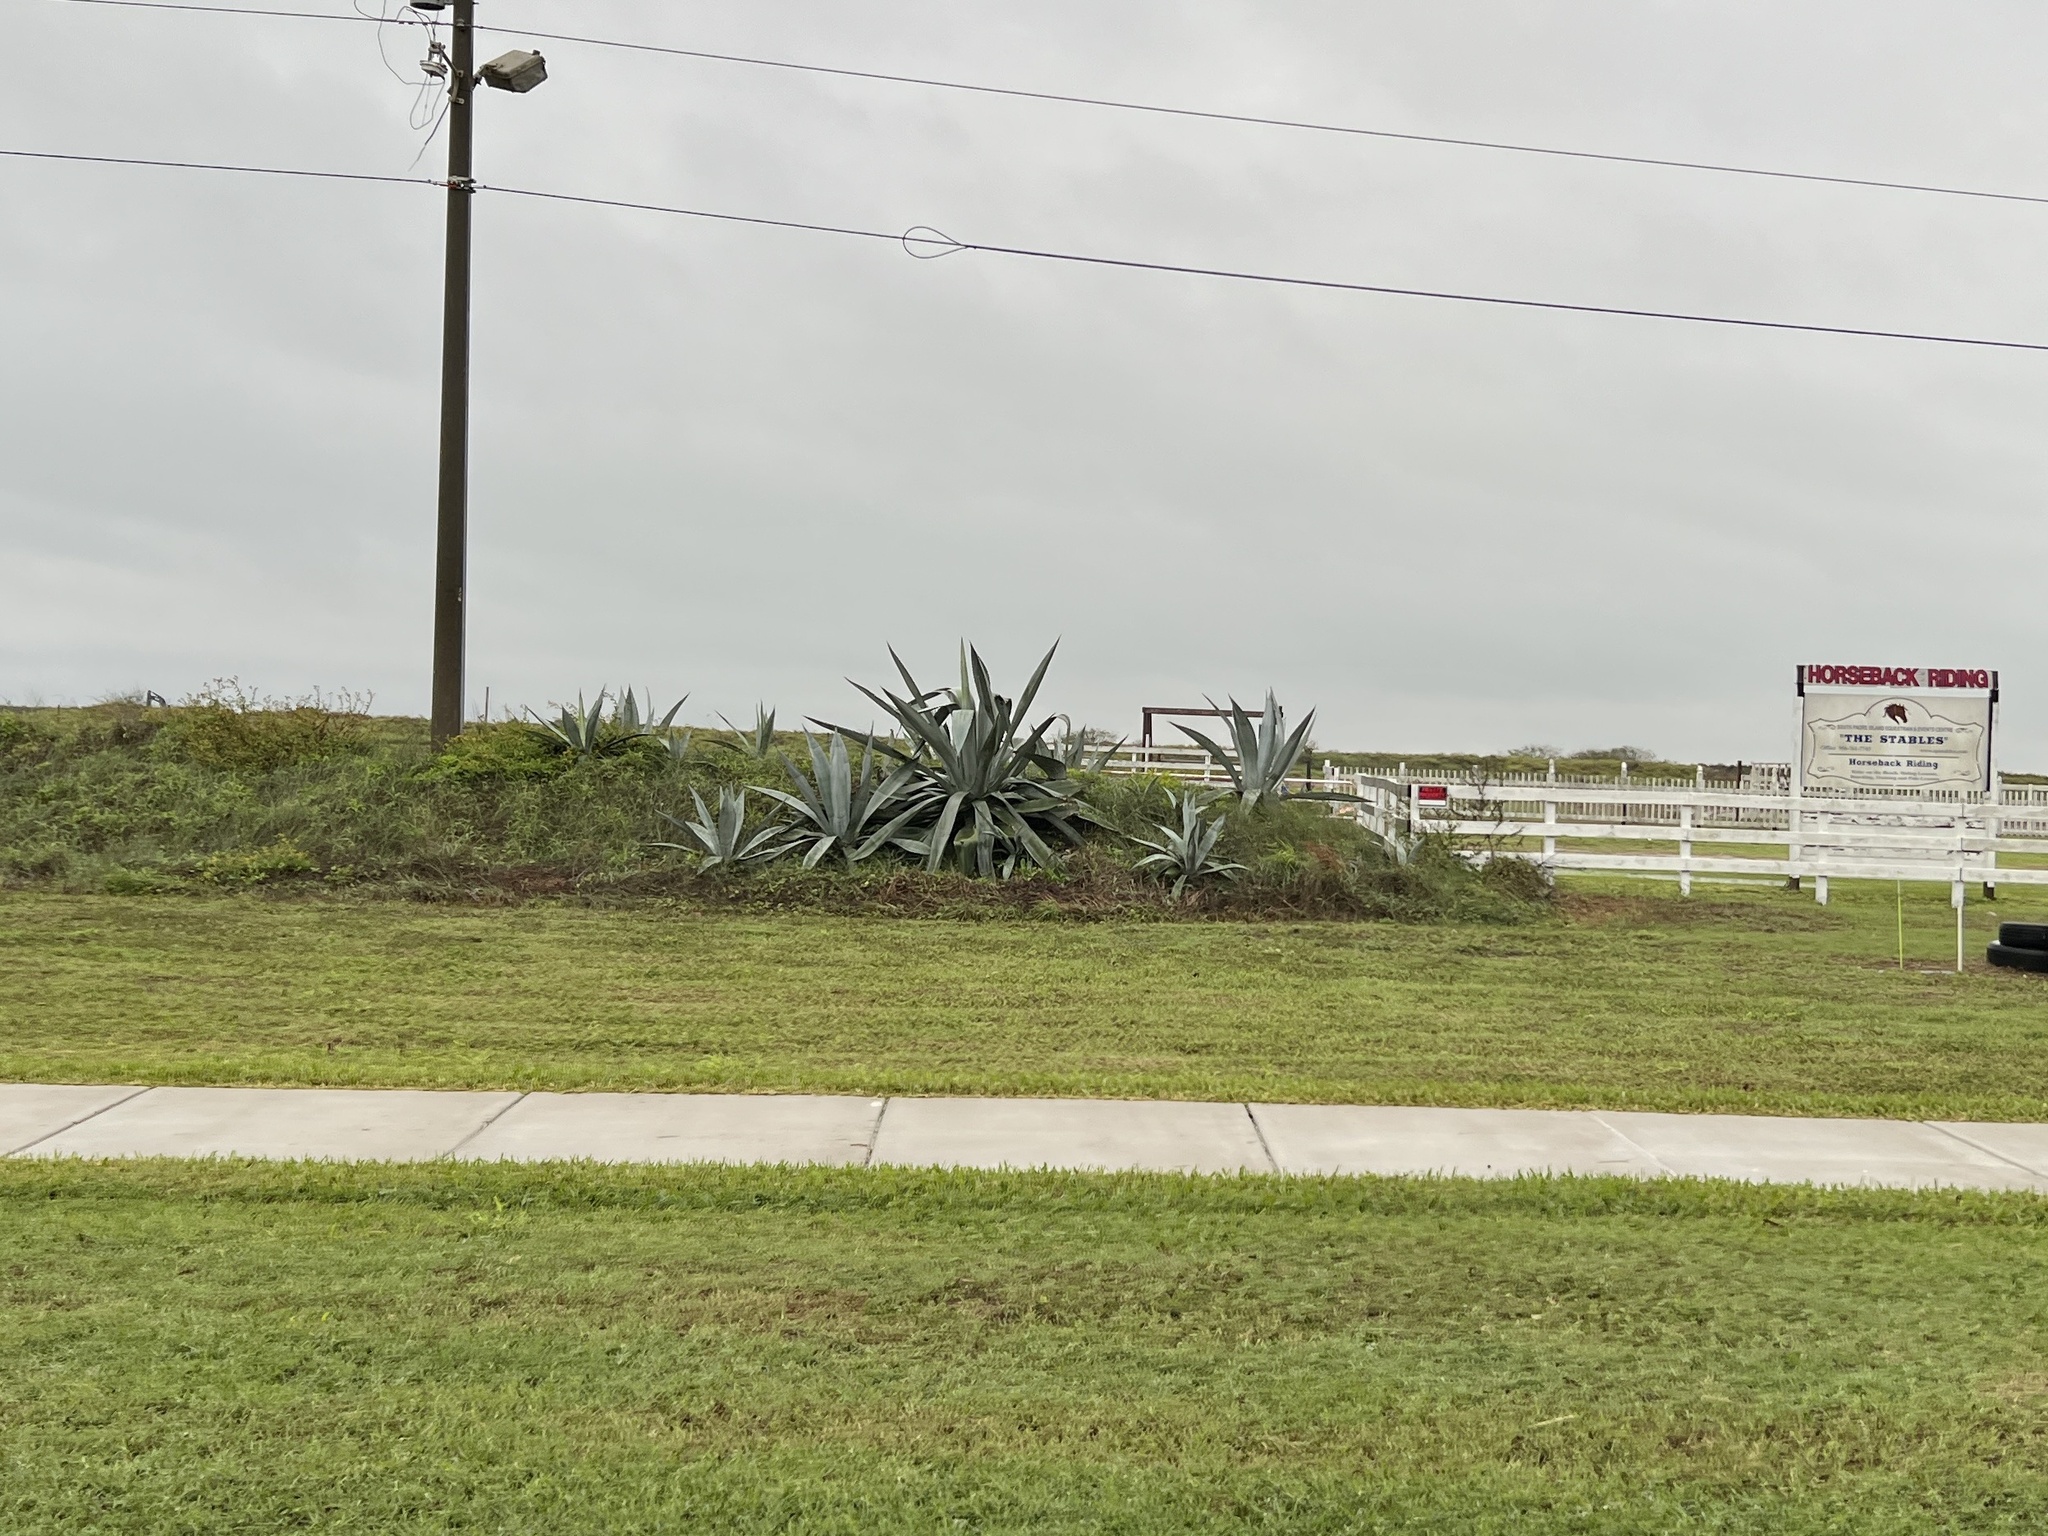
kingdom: Plantae
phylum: Tracheophyta
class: Liliopsida
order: Asparagales
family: Asparagaceae
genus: Agave
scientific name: Agave americana
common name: Centuryplant
